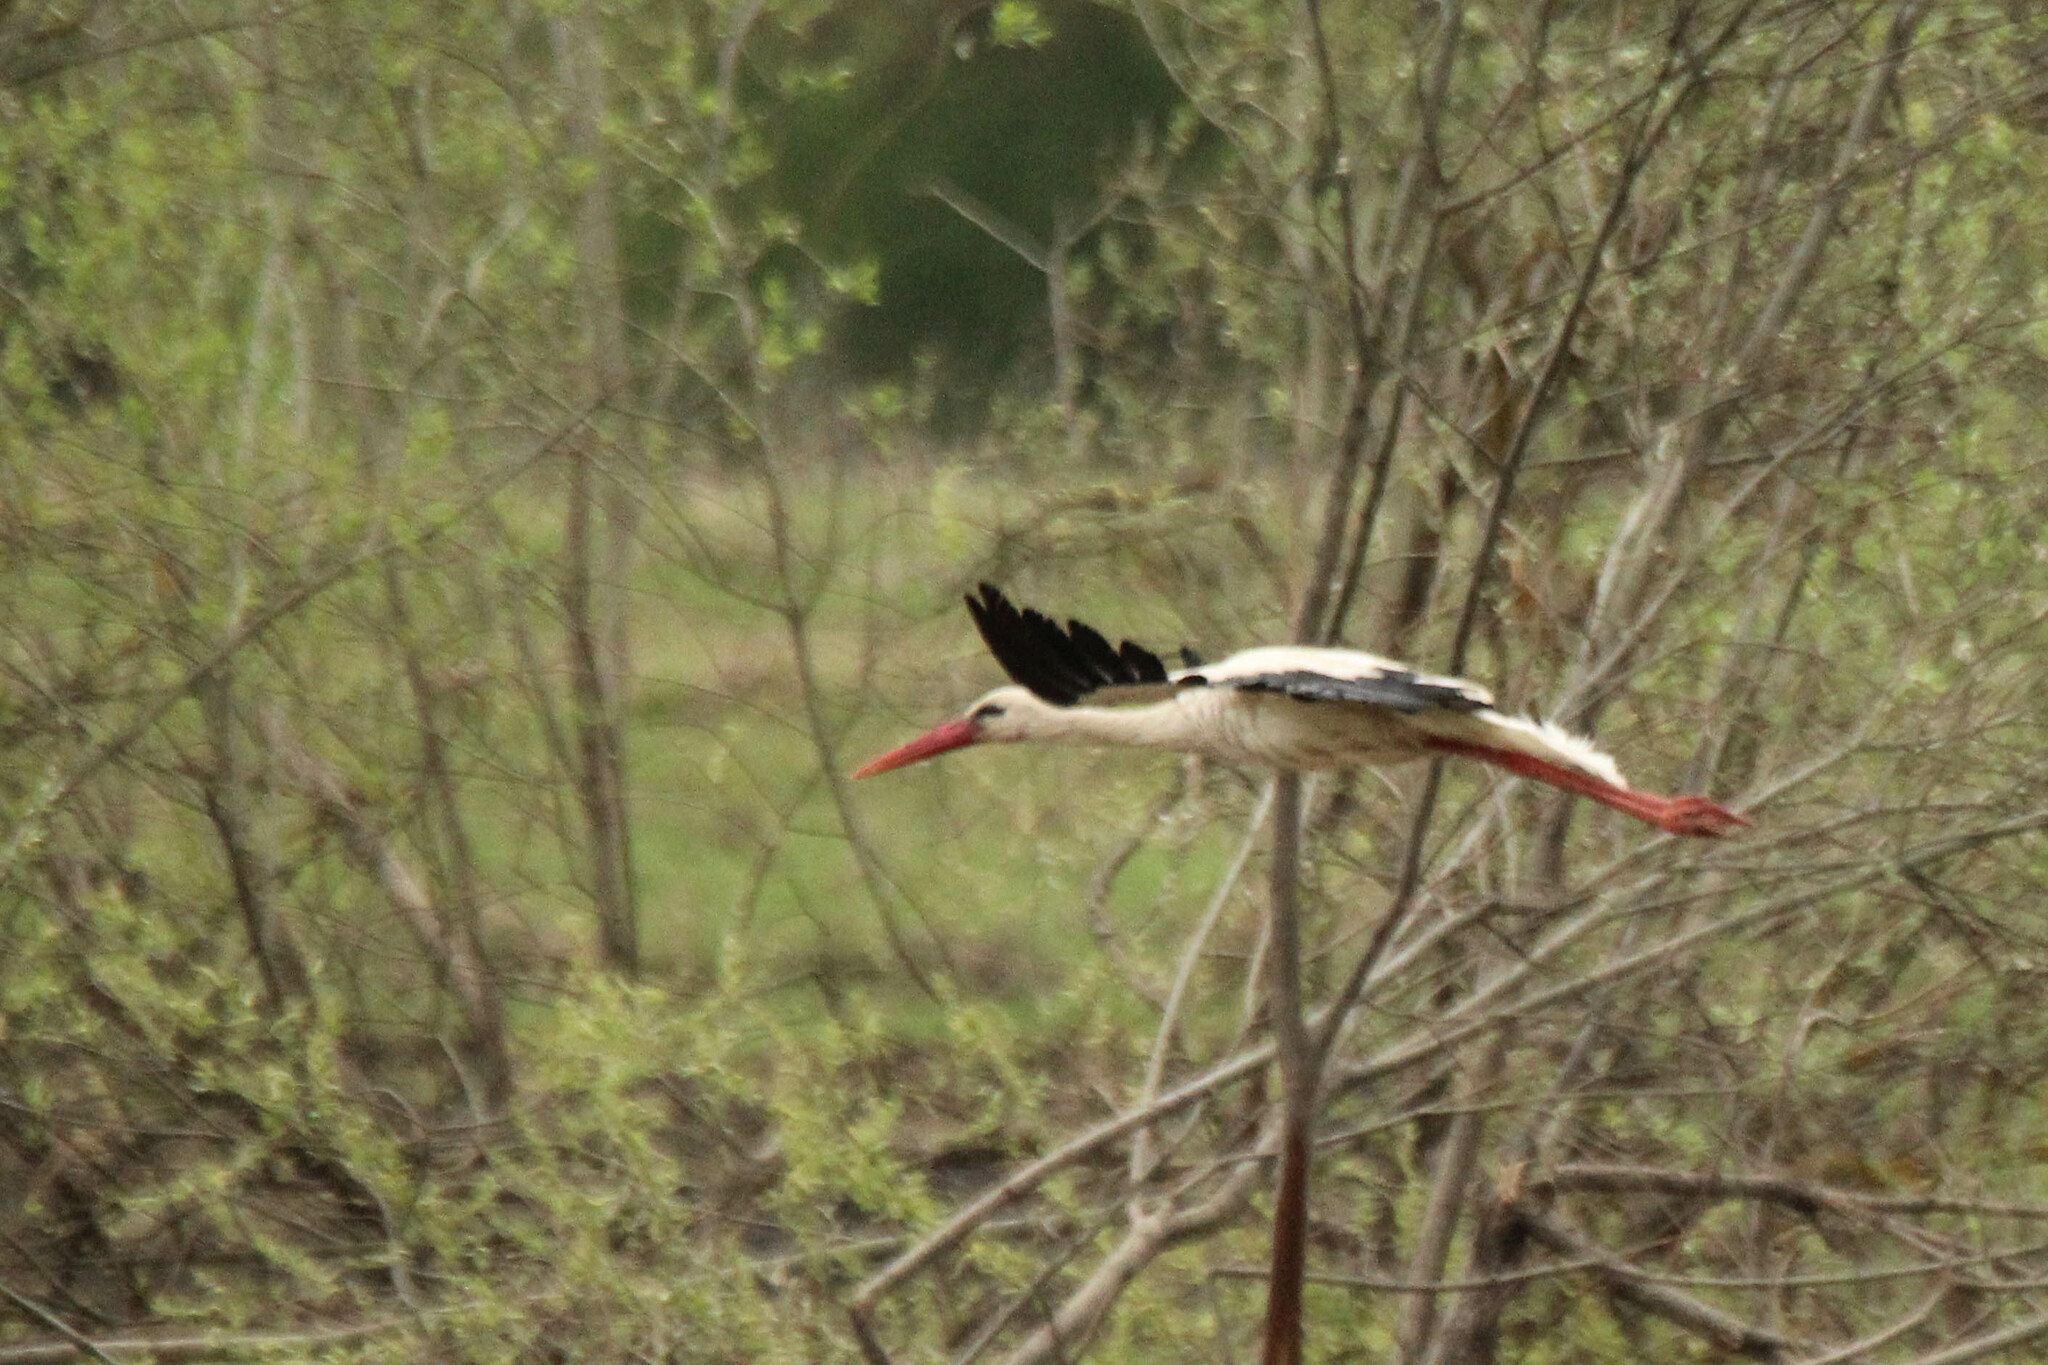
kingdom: Animalia
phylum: Chordata
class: Aves
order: Ciconiiformes
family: Ciconiidae
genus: Ciconia
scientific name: Ciconia ciconia
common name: White stork
